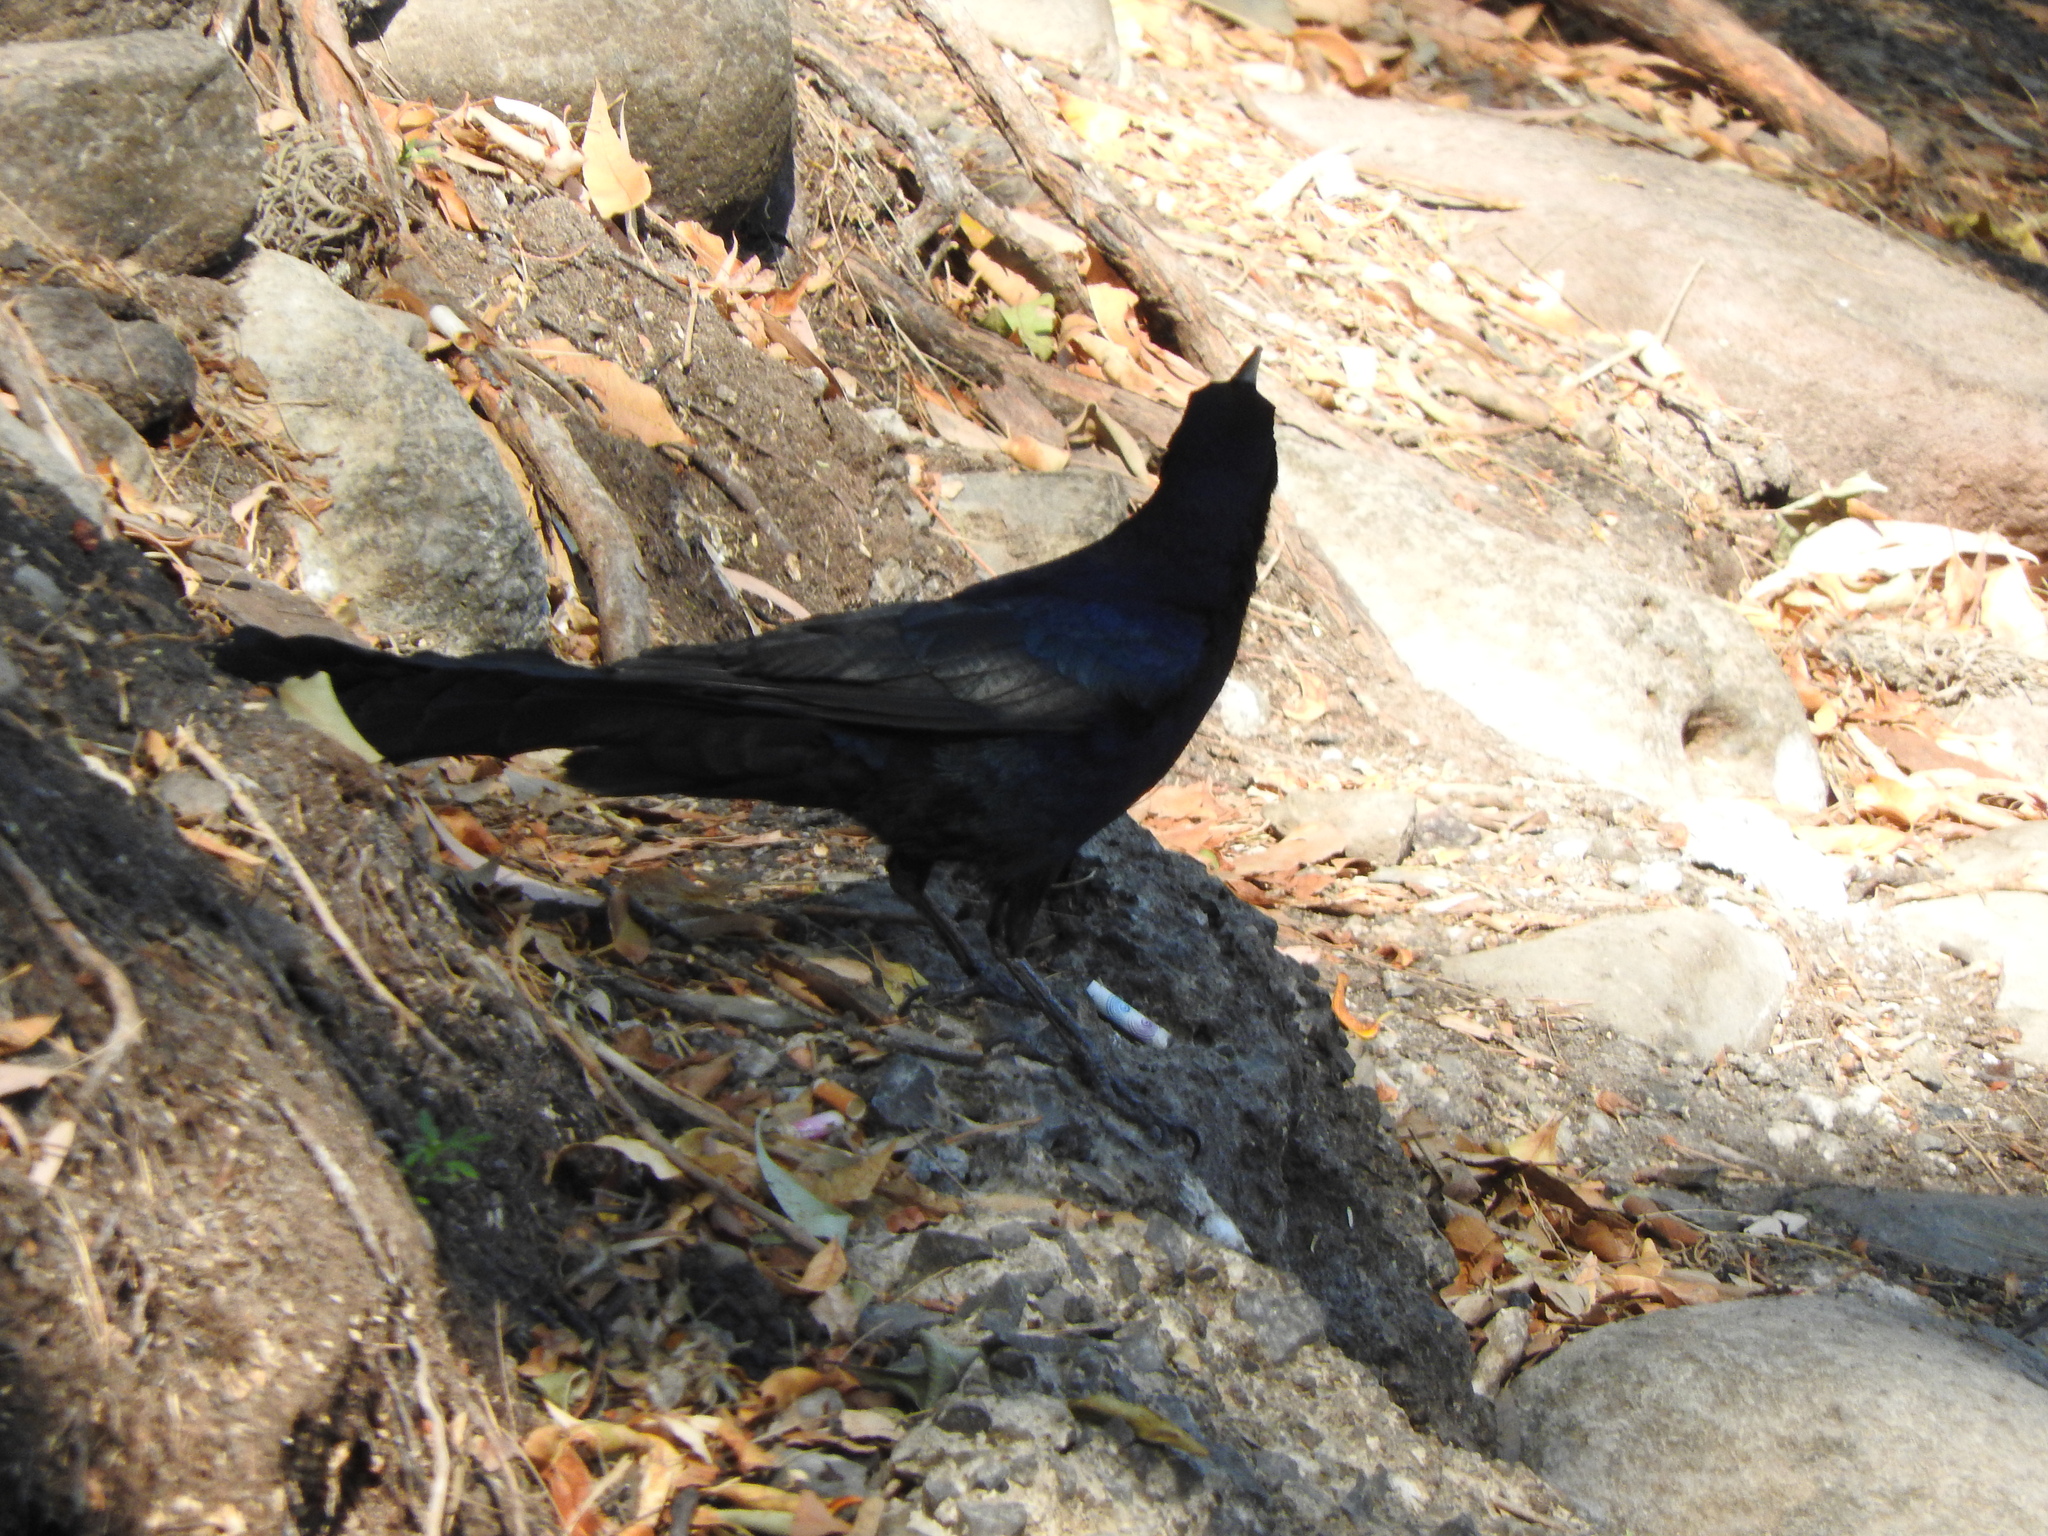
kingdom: Animalia
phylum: Chordata
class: Aves
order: Passeriformes
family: Icteridae
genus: Quiscalus
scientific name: Quiscalus mexicanus
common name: Great-tailed grackle
